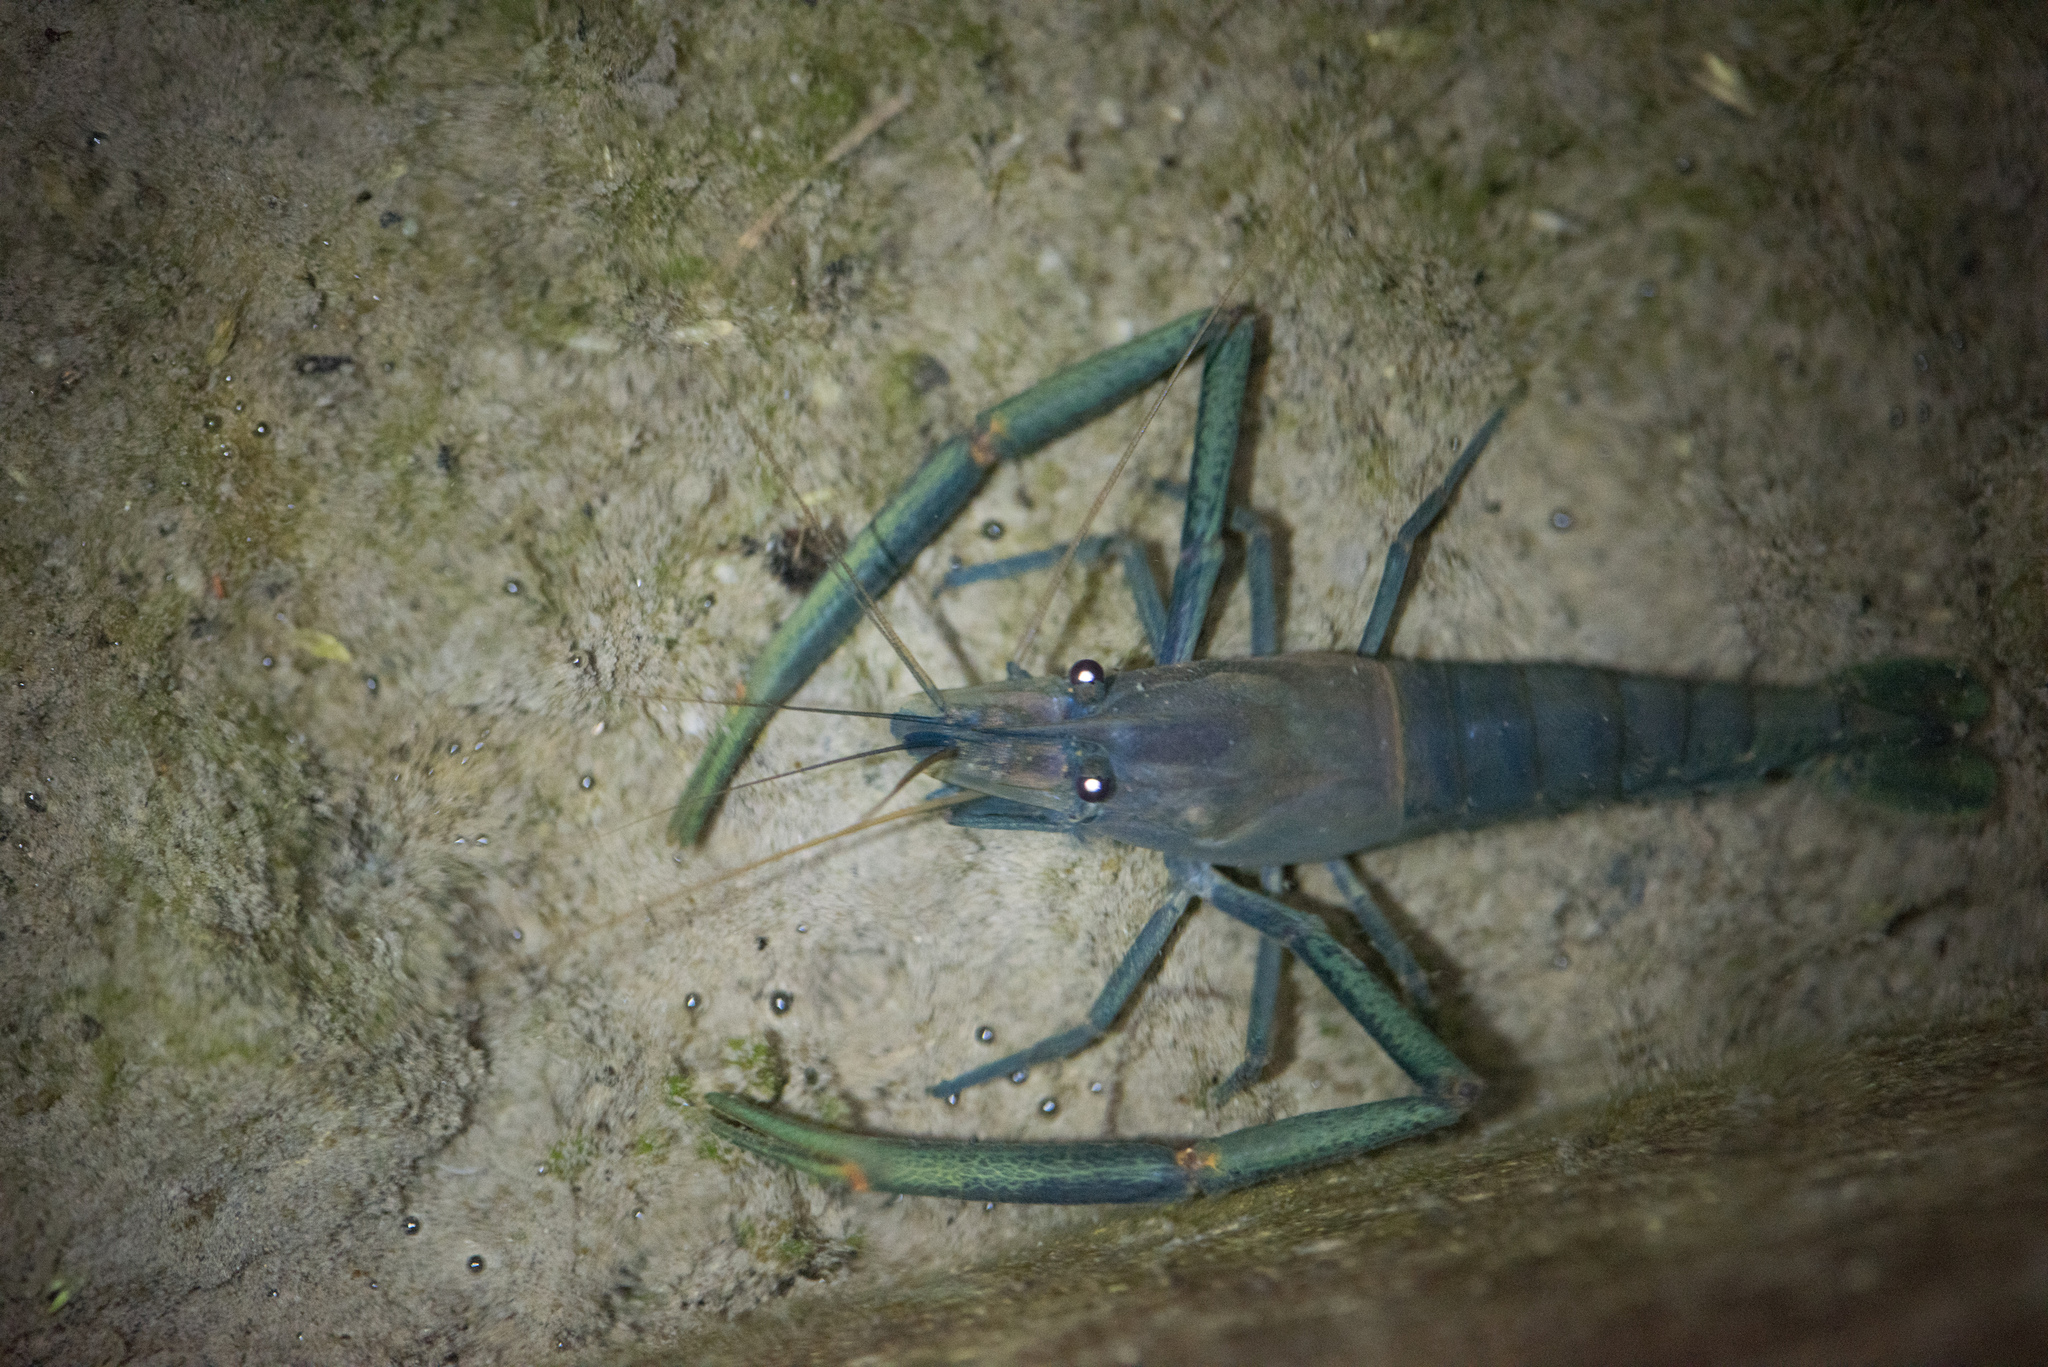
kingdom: Animalia
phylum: Arthropoda
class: Malacostraca
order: Decapoda
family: Palaemonidae
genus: Macrobrachium
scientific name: Macrobrachium asperulum
